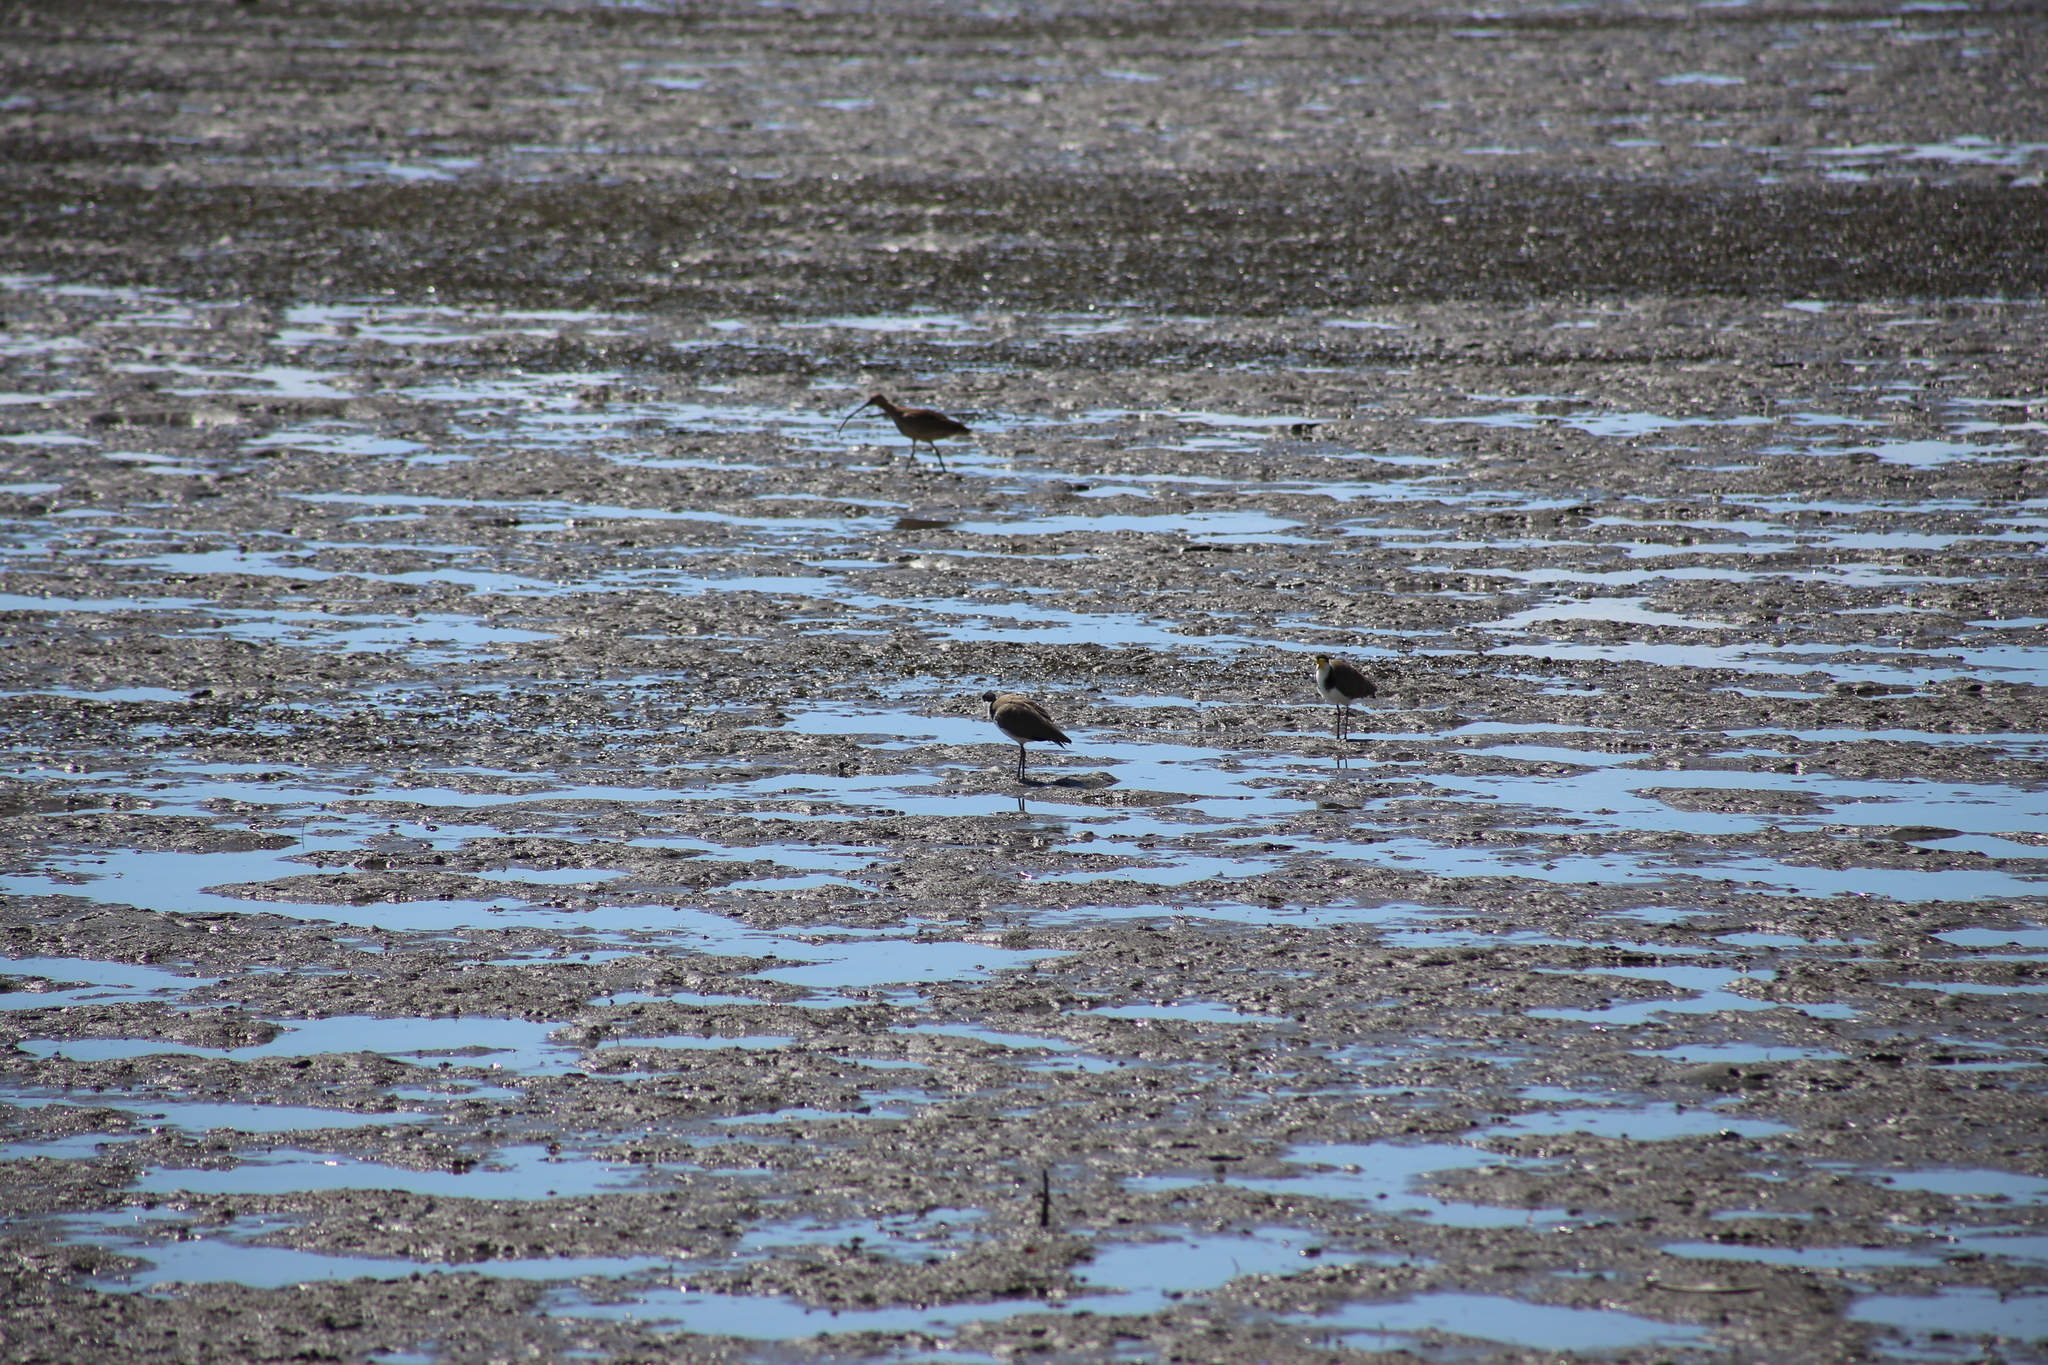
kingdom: Animalia
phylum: Chordata
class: Aves
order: Charadriiformes
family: Charadriidae
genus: Vanellus
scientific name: Vanellus miles
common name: Masked lapwing
